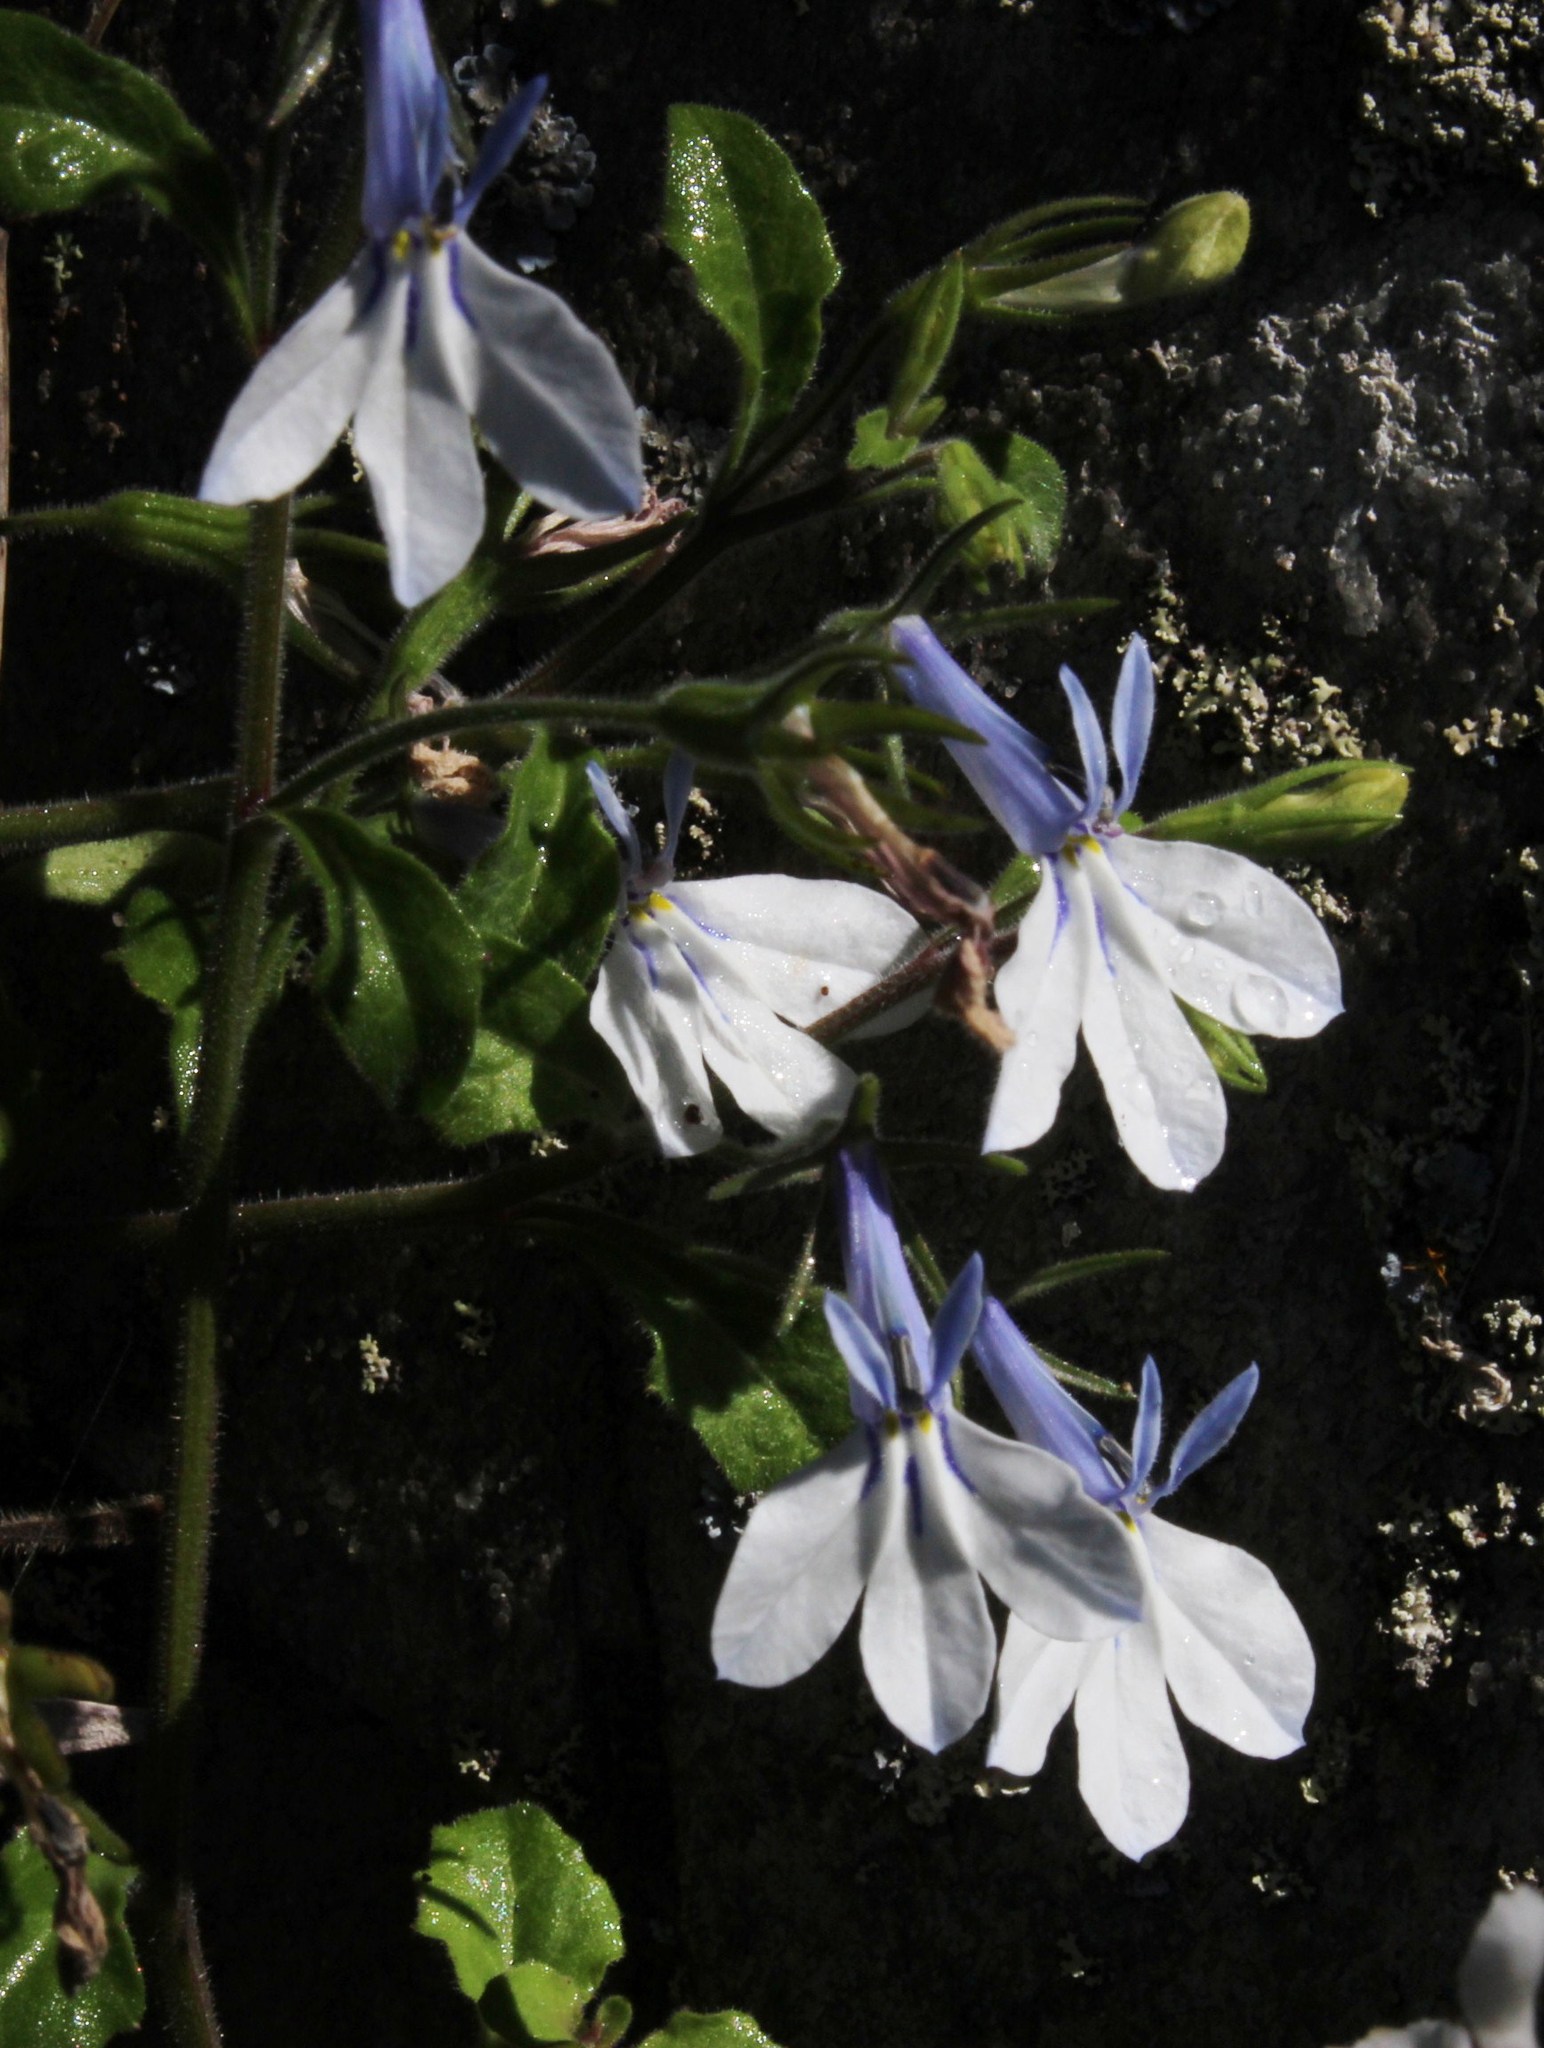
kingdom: Plantae
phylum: Tracheophyta
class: Magnoliopsida
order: Asterales
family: Campanulaceae
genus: Lobelia
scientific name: Lobelia cuneifolia
